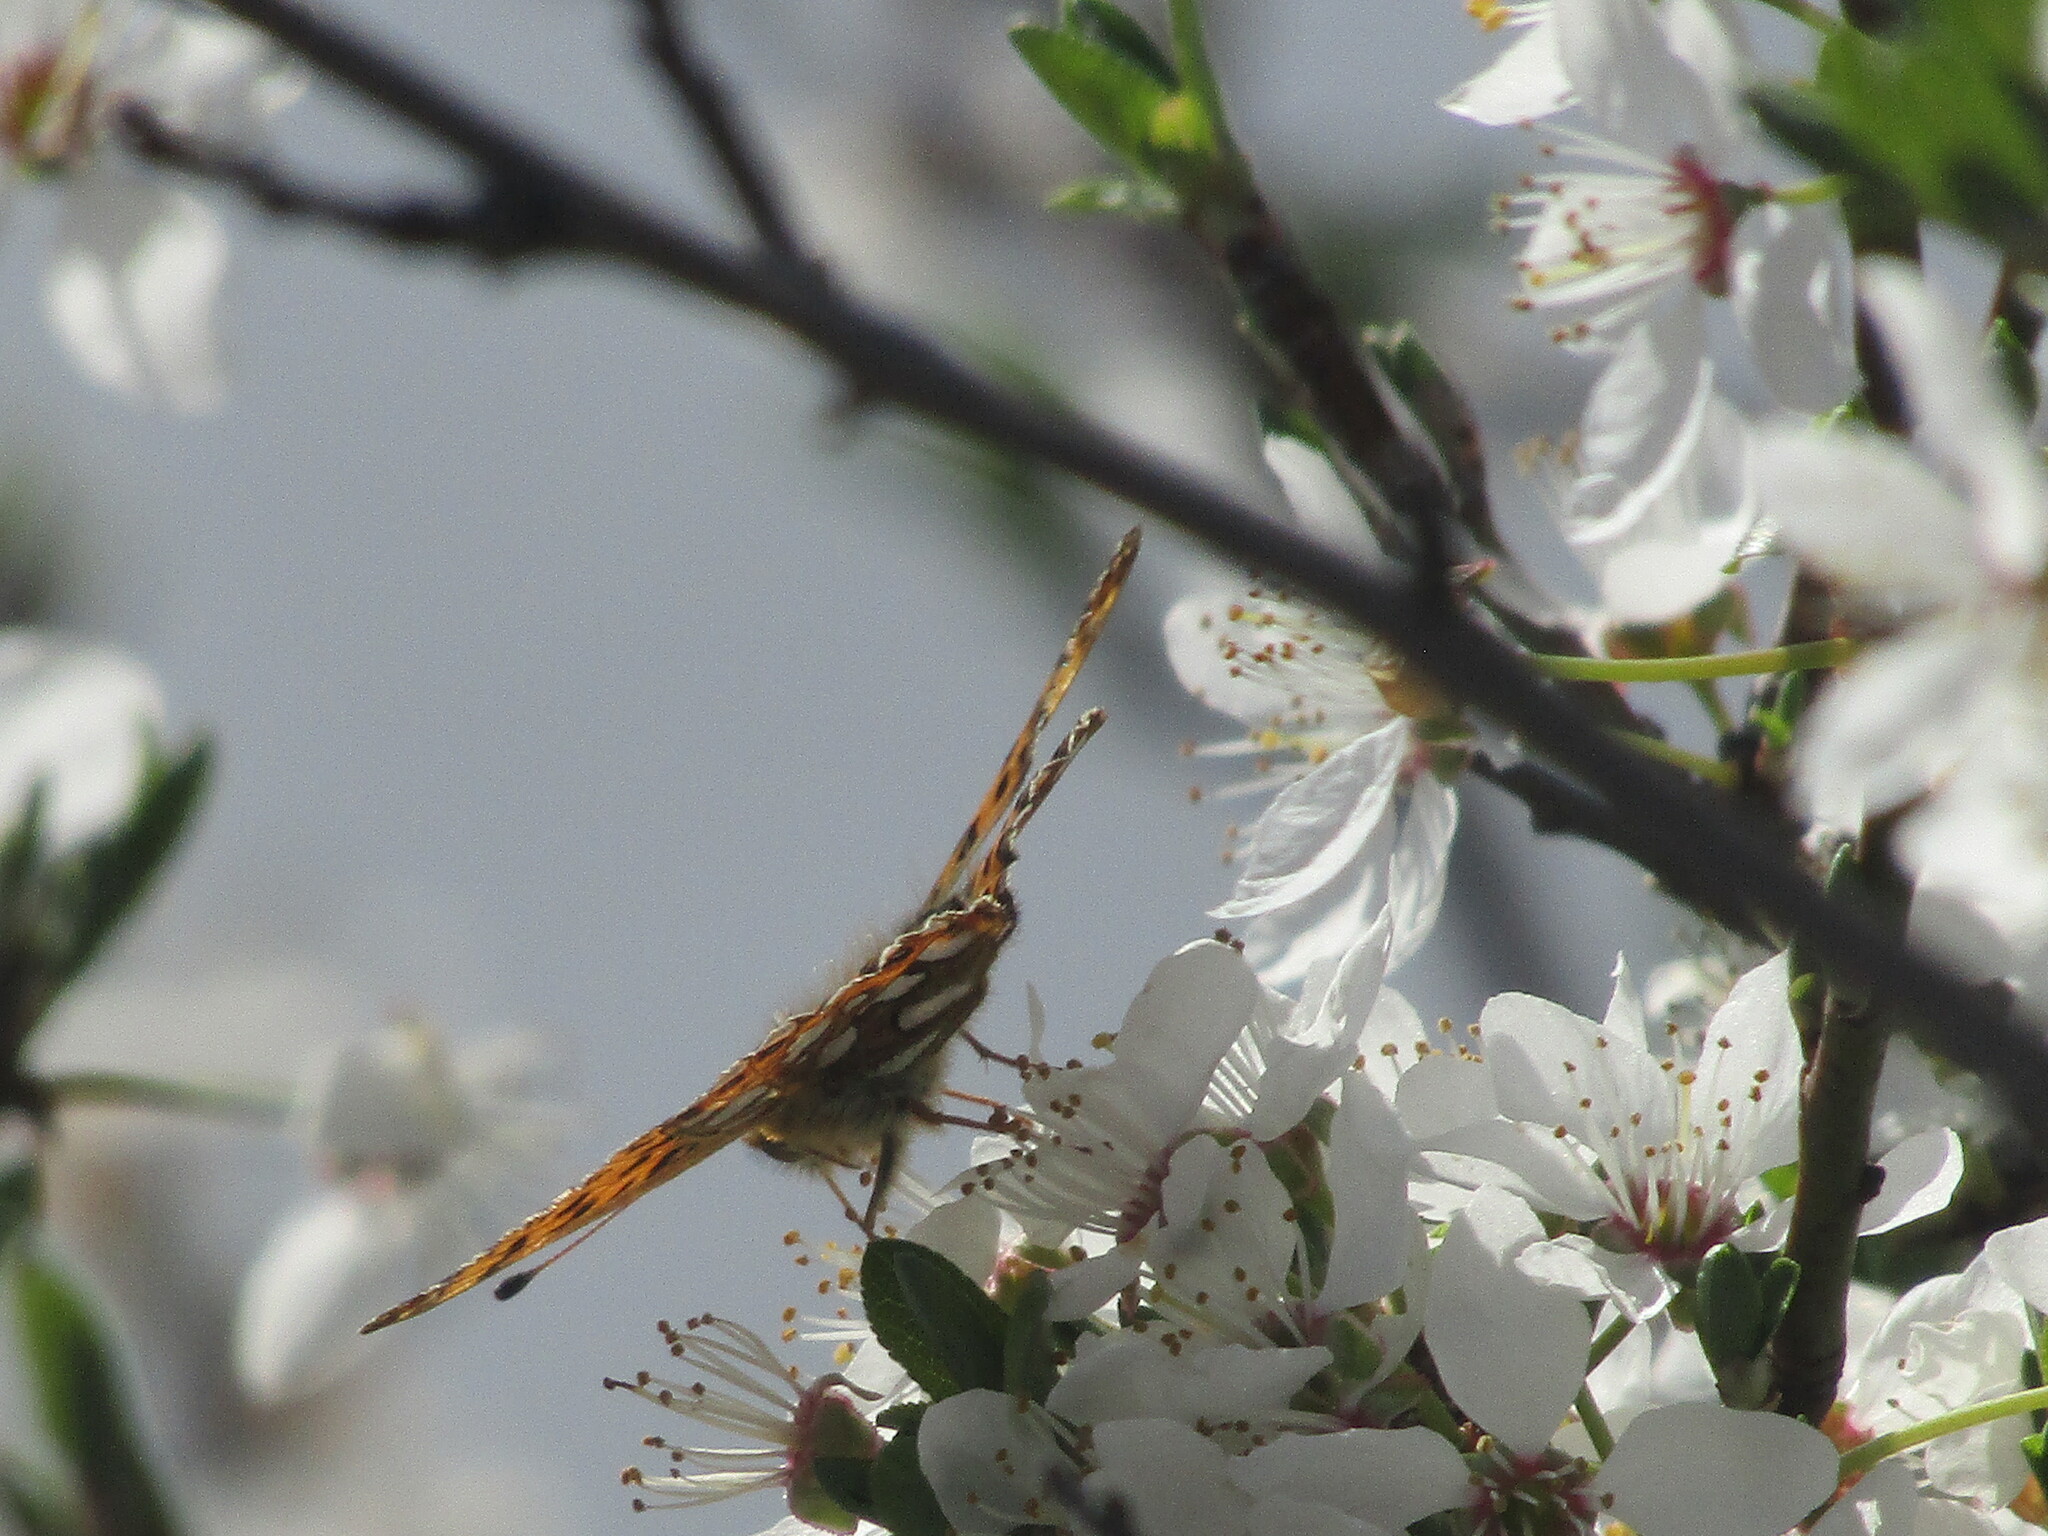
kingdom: Animalia
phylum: Arthropoda
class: Insecta
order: Lepidoptera
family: Nymphalidae
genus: Issoria
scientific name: Issoria lathonia
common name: Queen of spain fritillary
